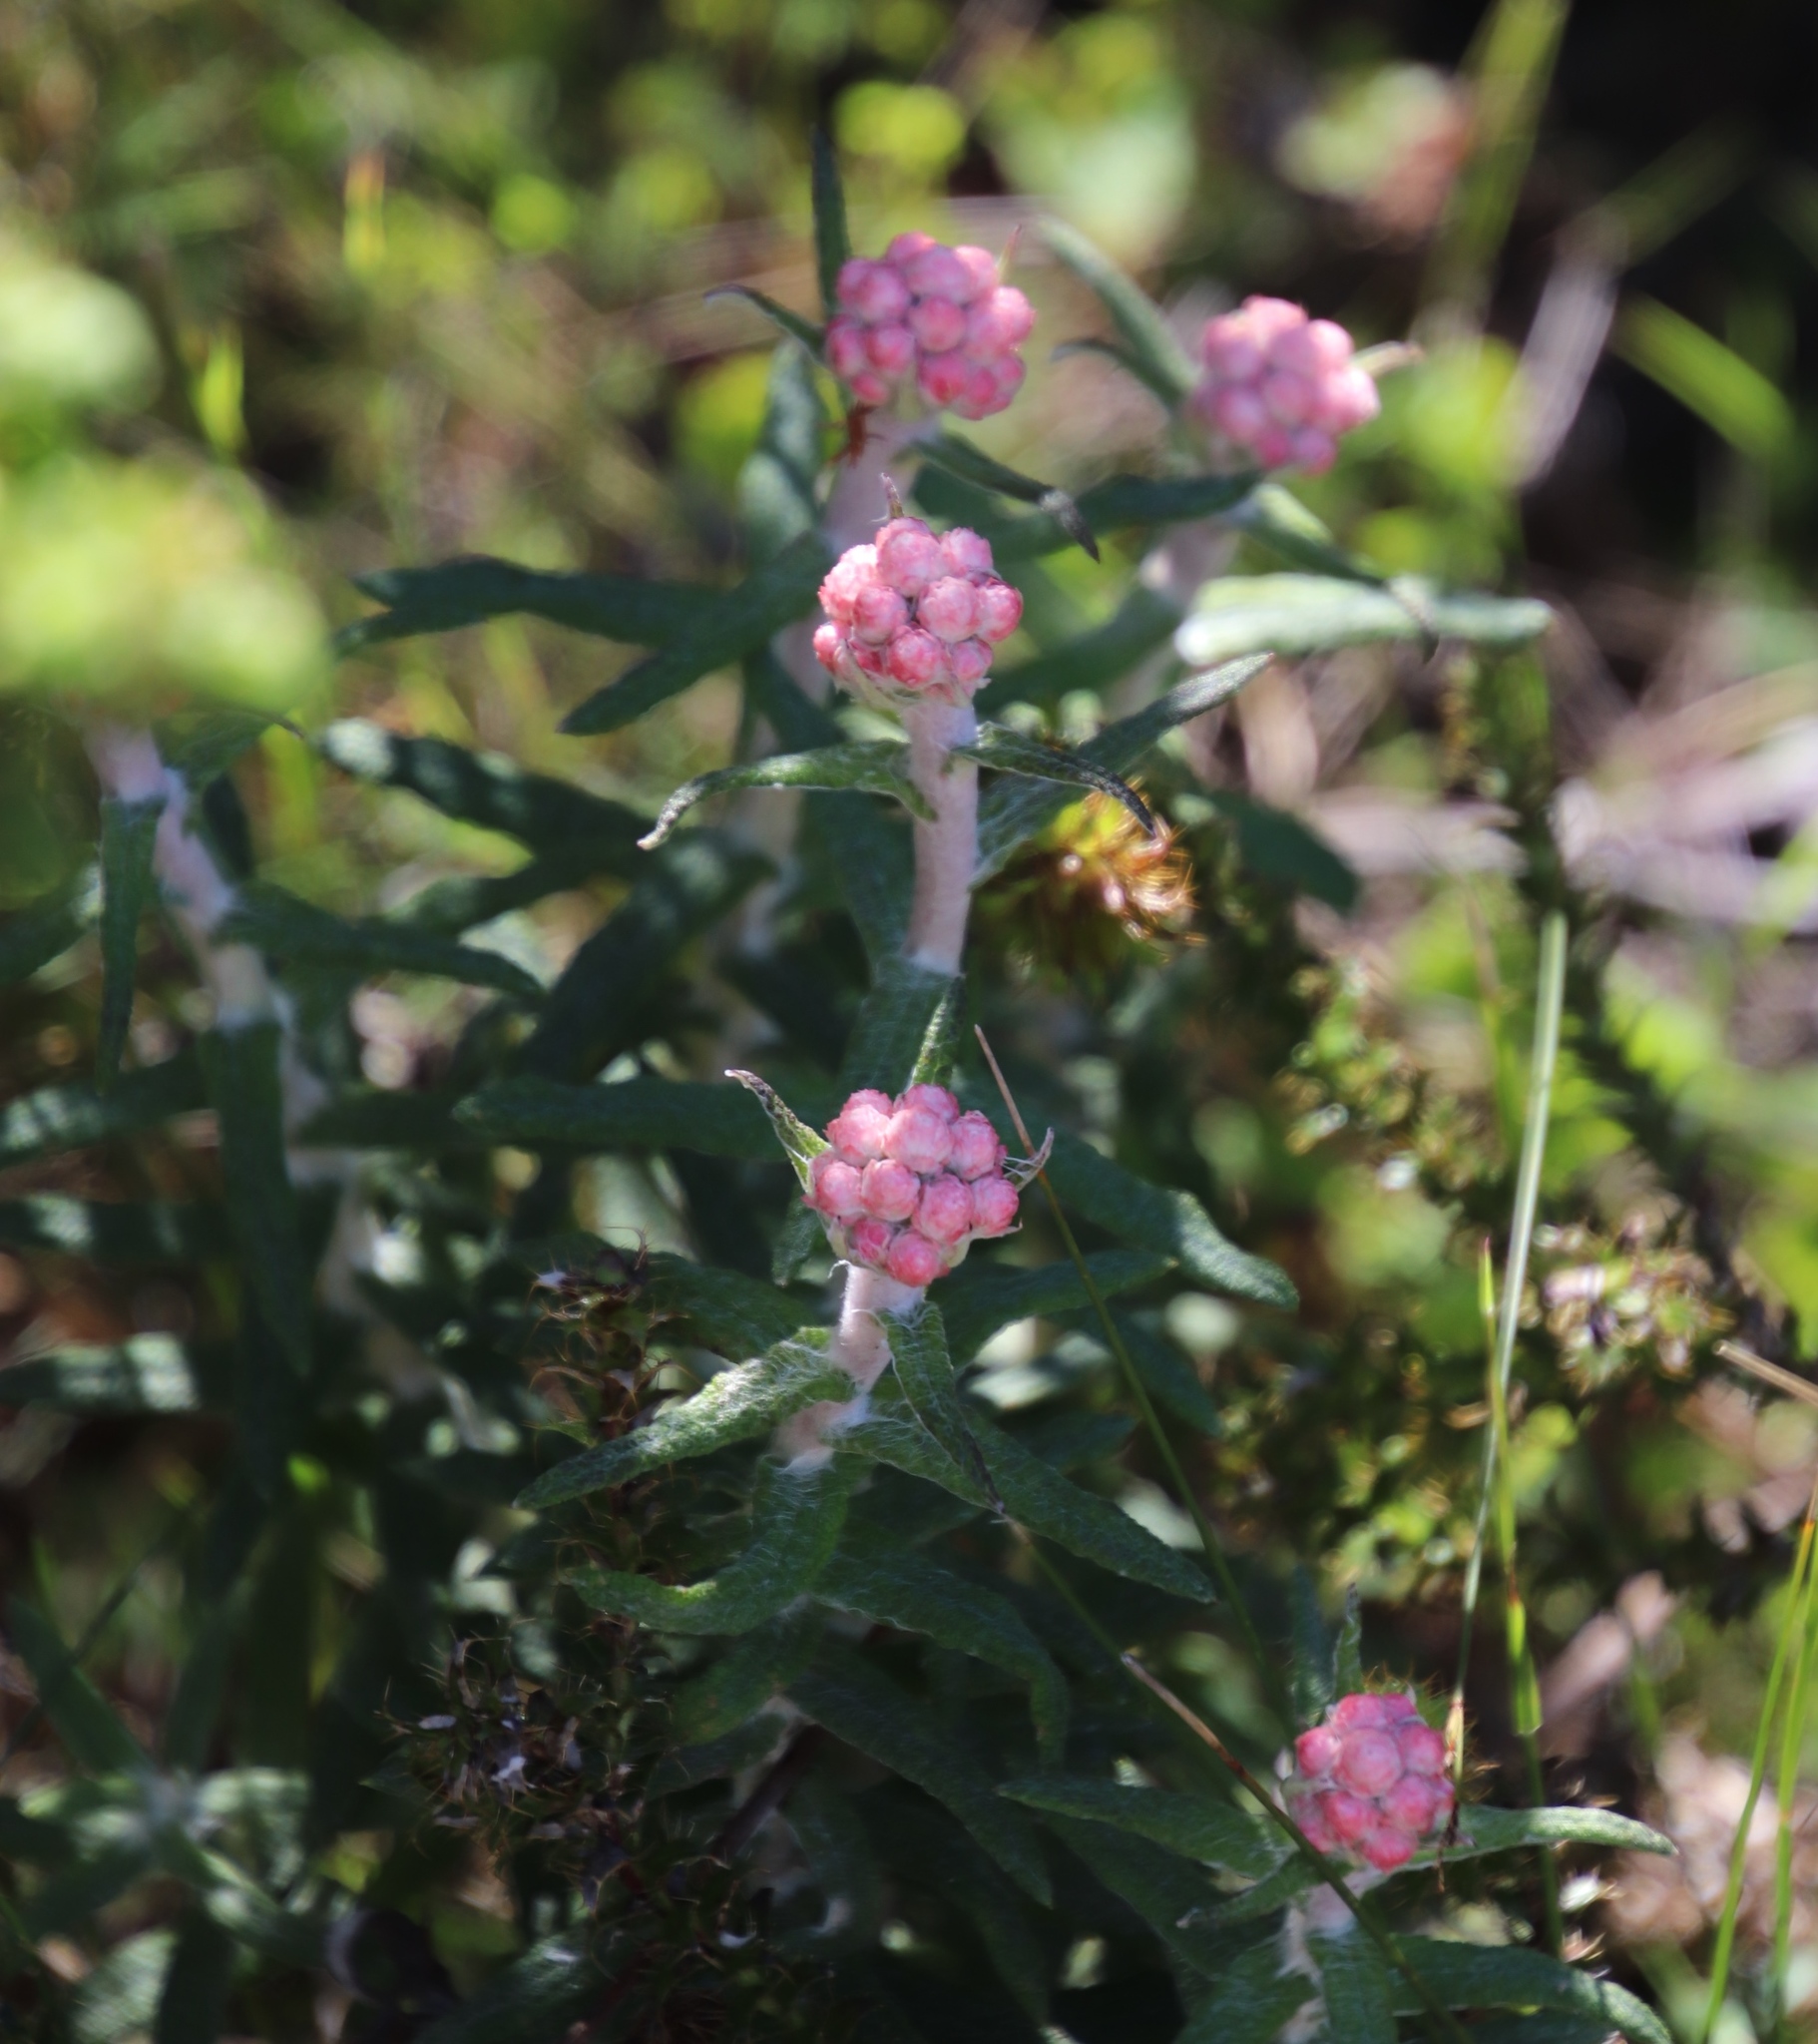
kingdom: Plantae
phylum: Tracheophyta
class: Magnoliopsida
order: Asterales
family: Asteraceae
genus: Helichrysum
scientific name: Helichrysum felinum
